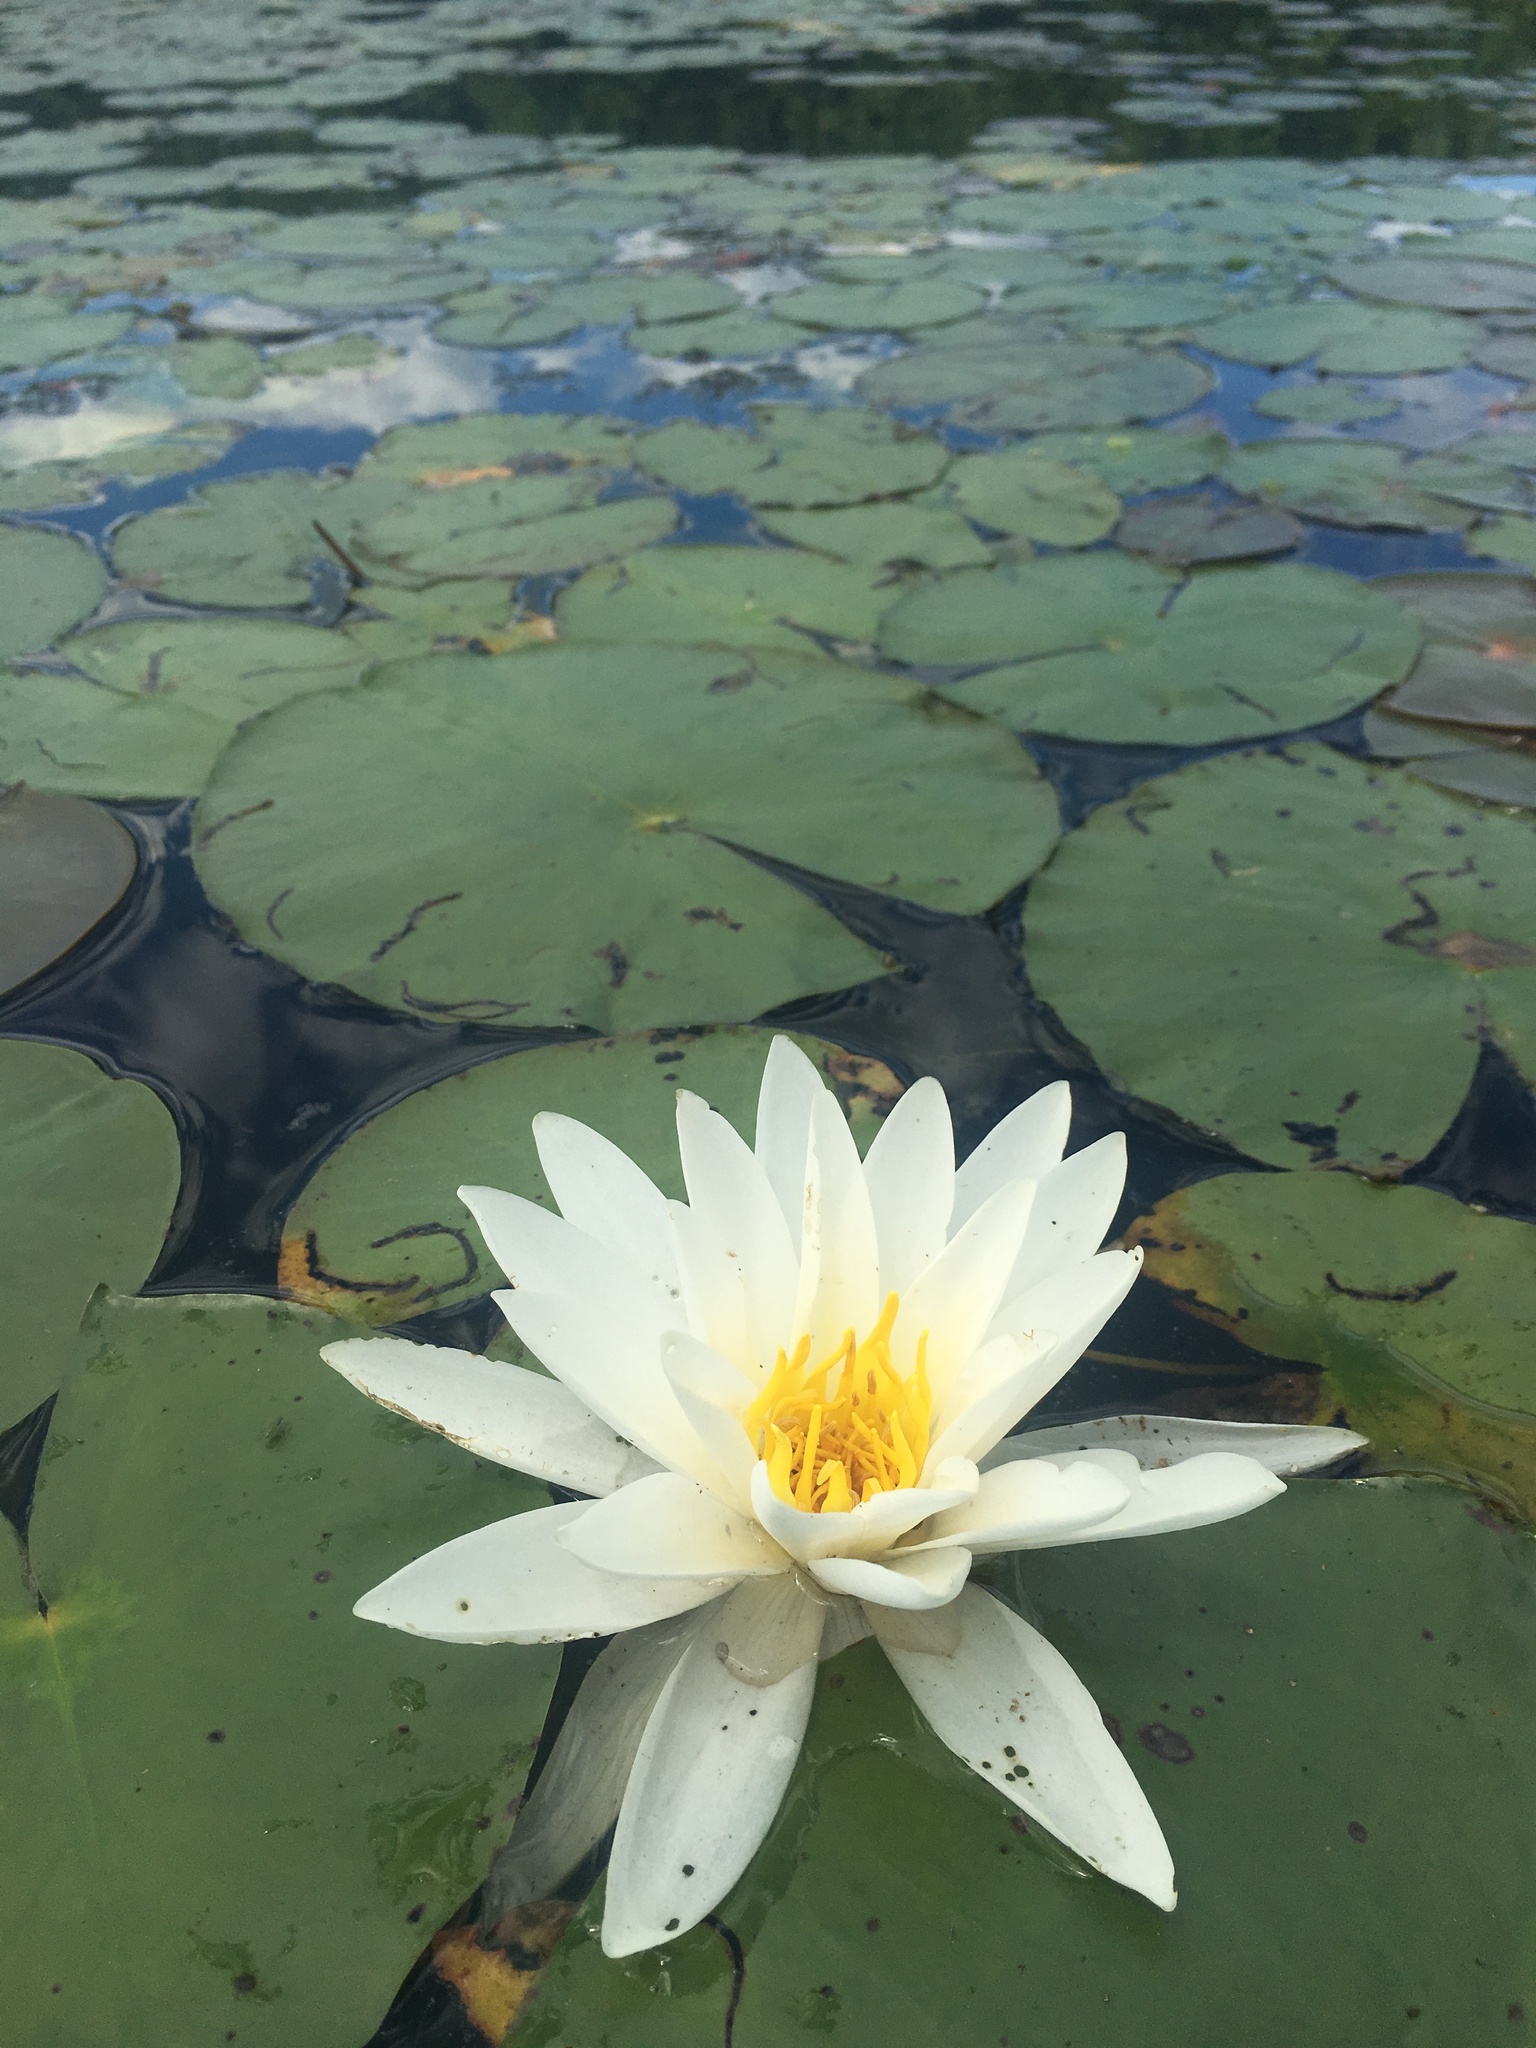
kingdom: Plantae
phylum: Tracheophyta
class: Magnoliopsida
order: Nymphaeales
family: Nymphaeaceae
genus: Nymphaea
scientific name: Nymphaea odorata
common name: Fragrant water-lily
